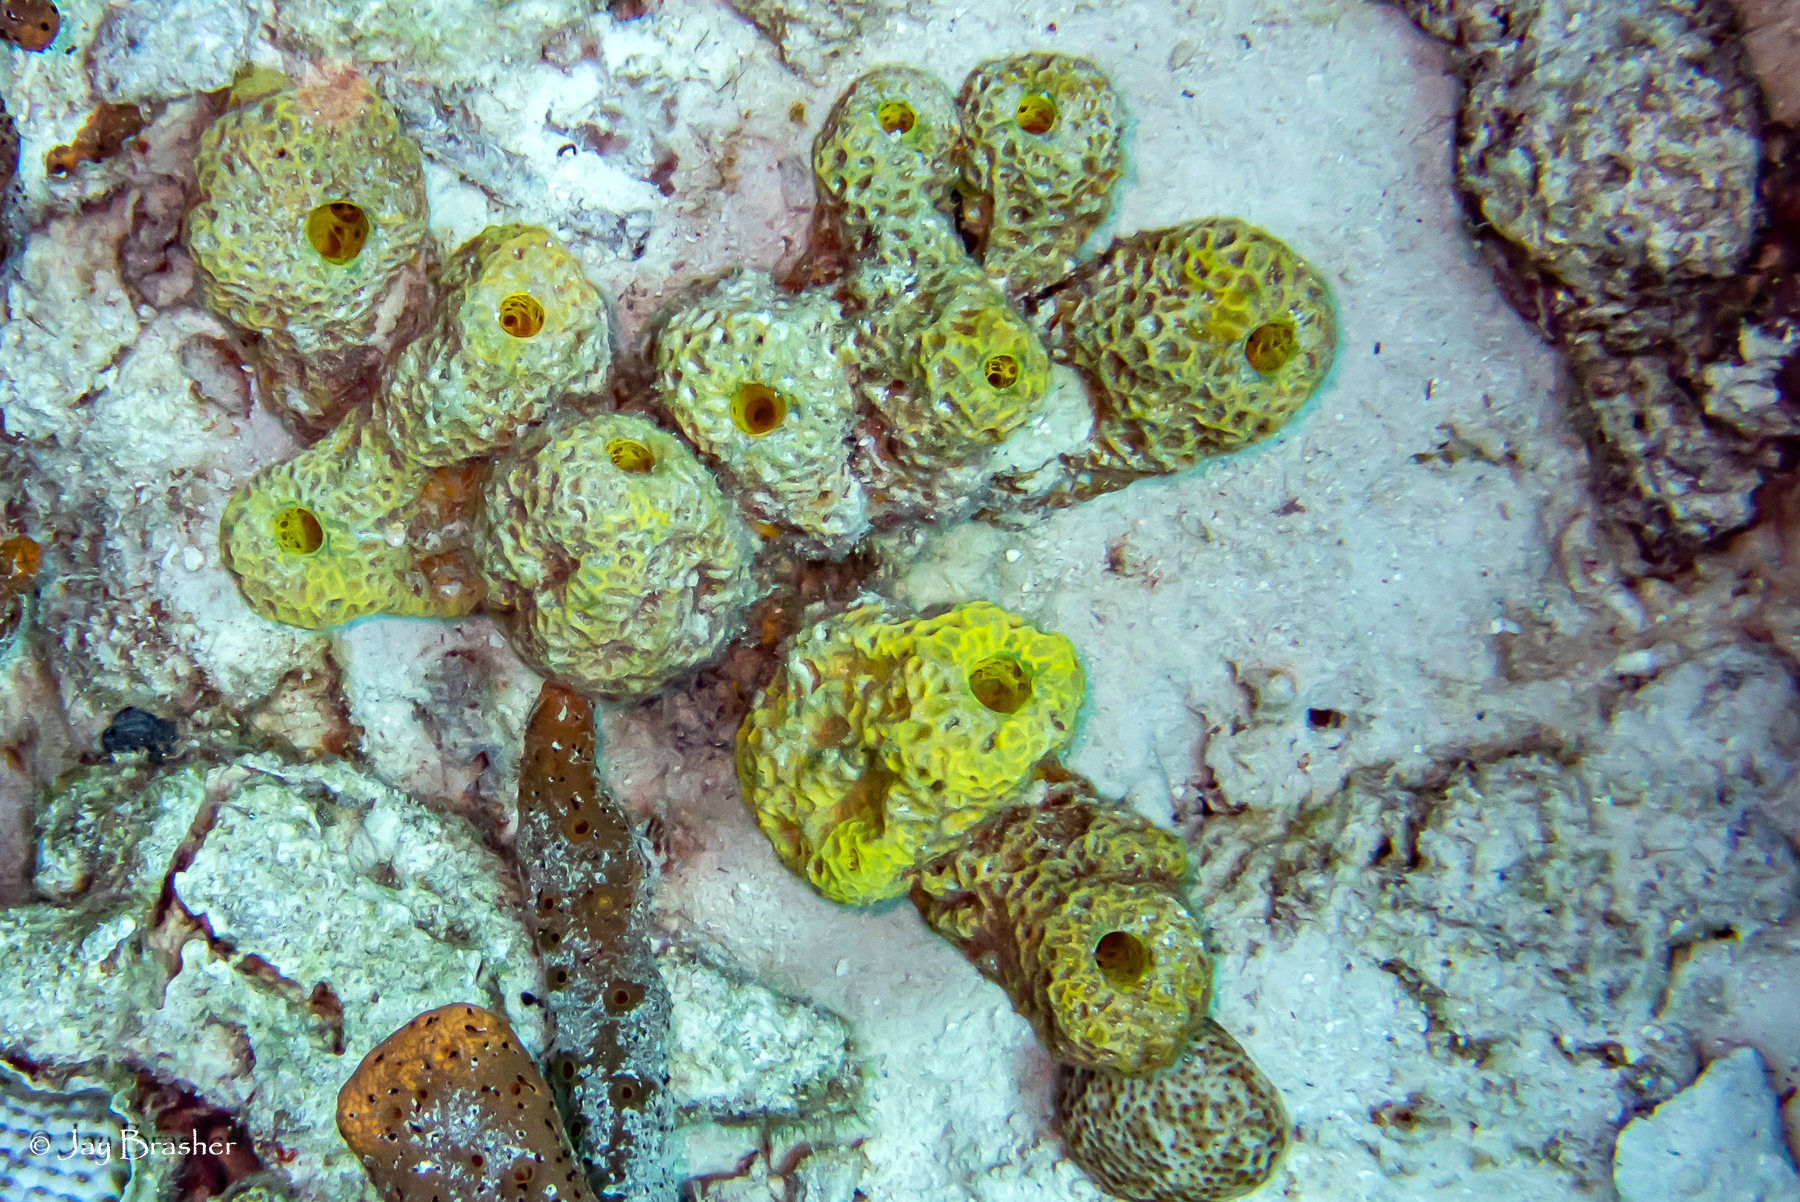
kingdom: Animalia
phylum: Porifera
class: Demospongiae
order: Verongiida
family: Aplysinidae
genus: Verongula
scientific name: Verongula rigida
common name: Pitted sponge
